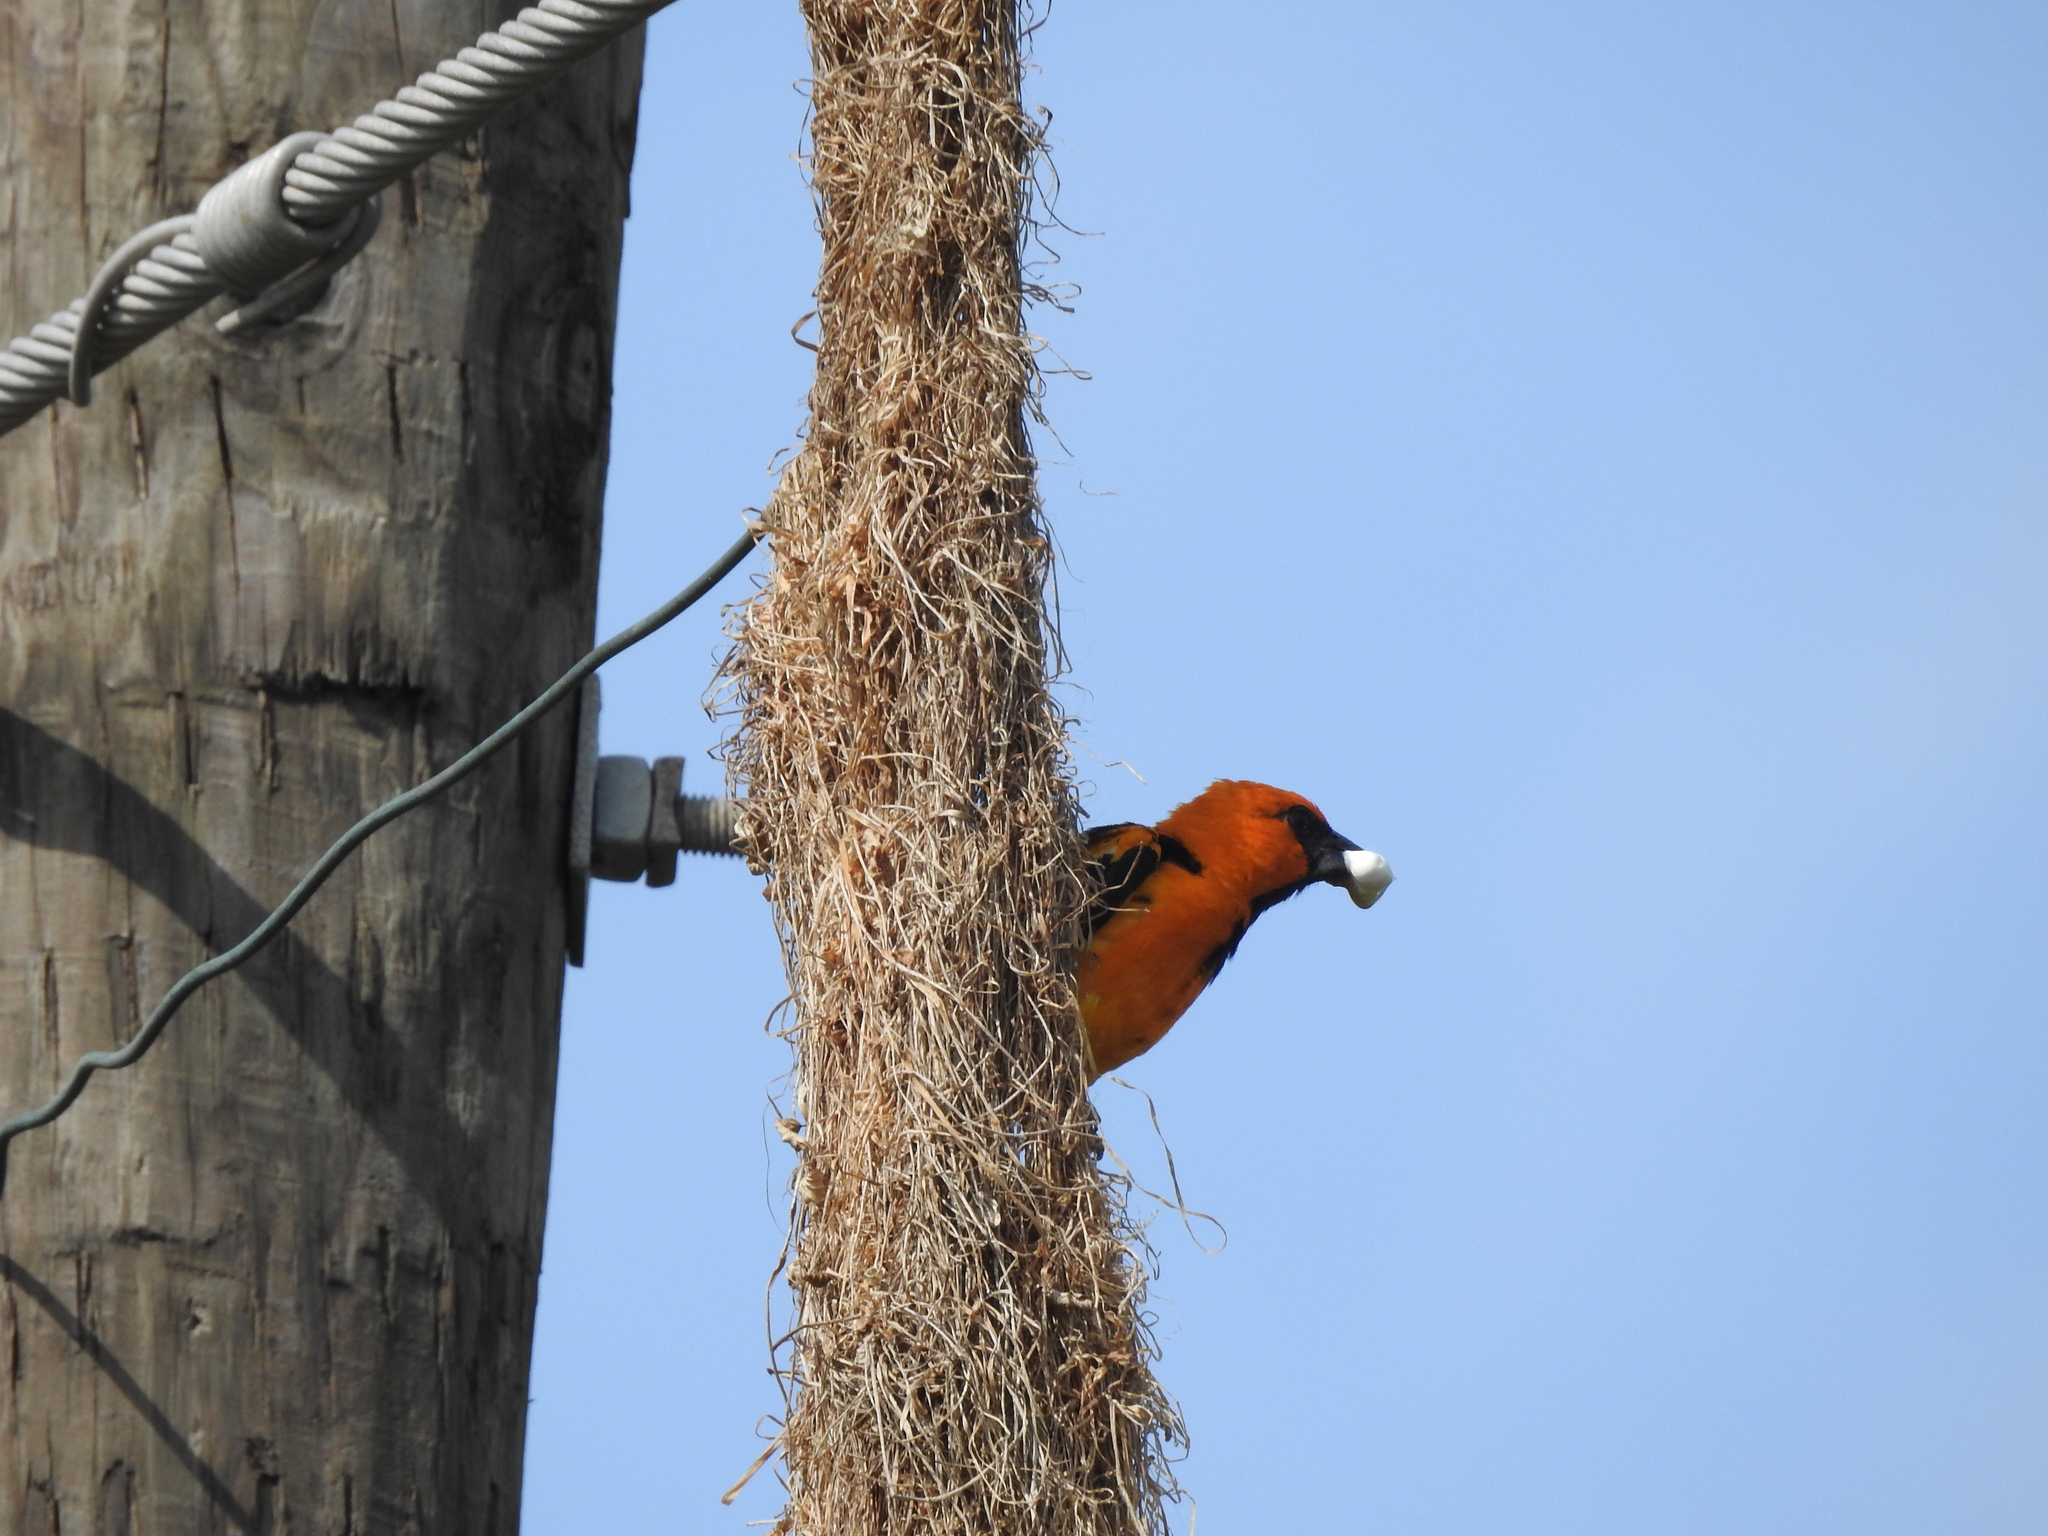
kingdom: Animalia
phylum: Chordata
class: Aves
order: Passeriformes
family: Icteridae
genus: Icterus
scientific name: Icterus gularis
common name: Altamira oriole
